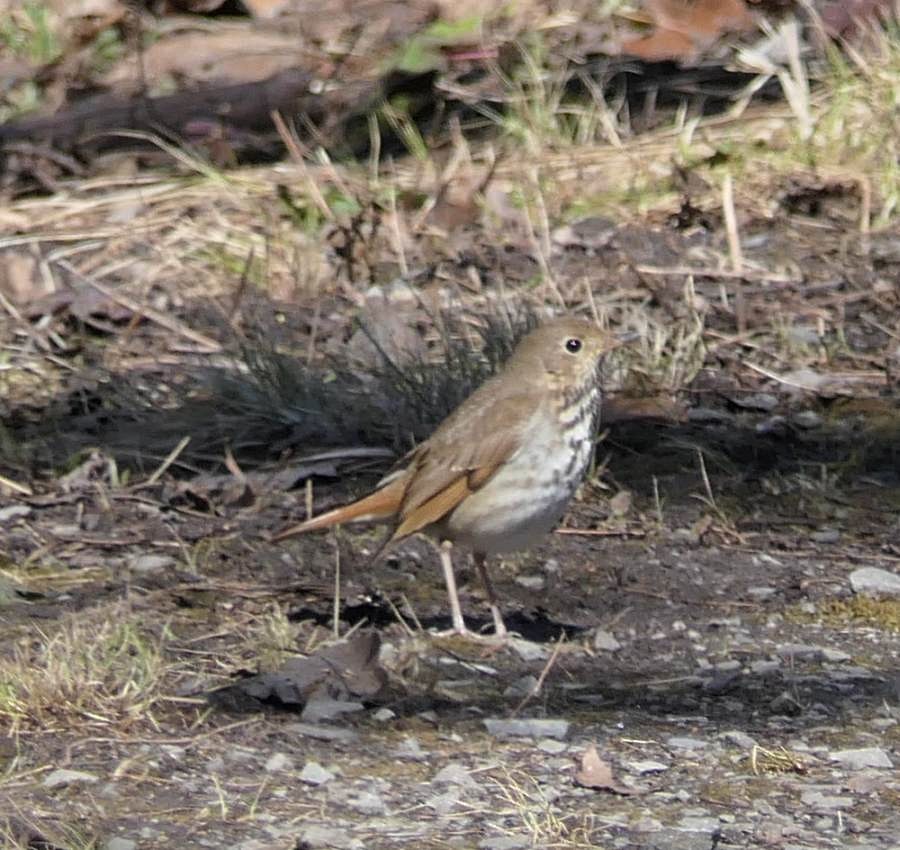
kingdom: Animalia
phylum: Chordata
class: Aves
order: Passeriformes
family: Turdidae
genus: Catharus
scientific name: Catharus guttatus
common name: Hermit thrush
